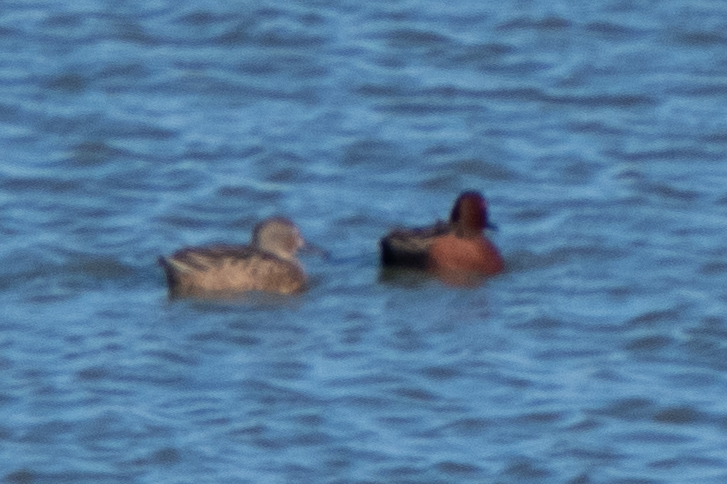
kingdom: Animalia
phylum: Chordata
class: Aves
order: Anseriformes
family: Anatidae
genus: Spatula
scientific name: Spatula cyanoptera
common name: Cinnamon teal
